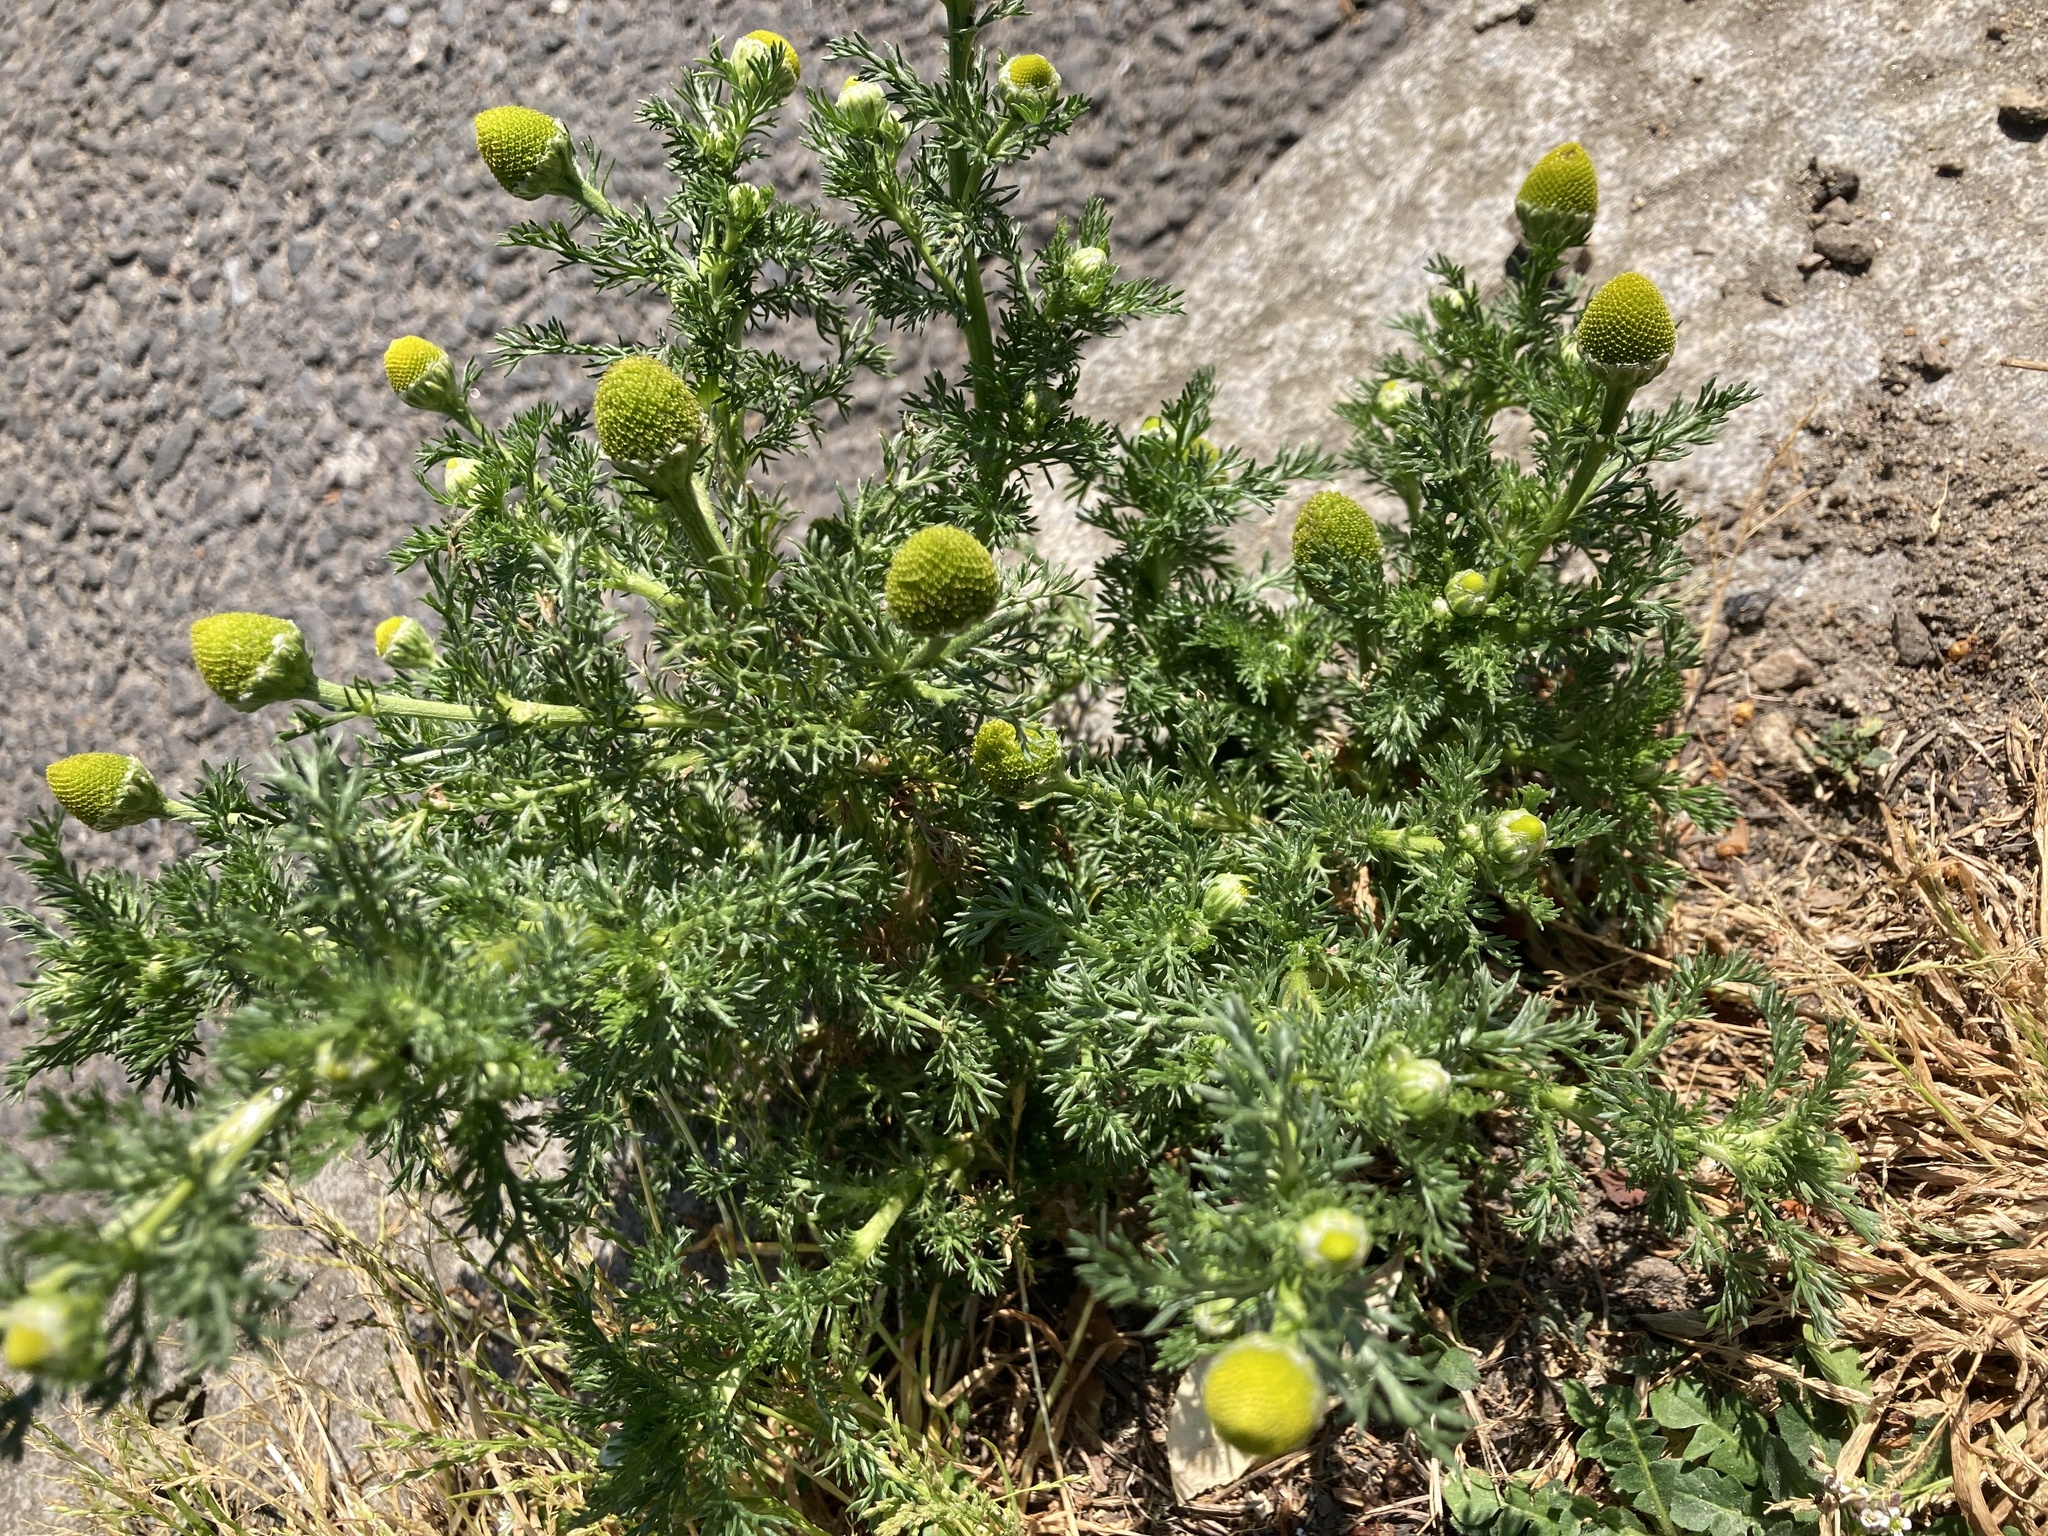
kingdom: Plantae
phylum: Tracheophyta
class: Magnoliopsida
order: Asterales
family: Asteraceae
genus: Matricaria
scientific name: Matricaria discoidea
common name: Disc mayweed
